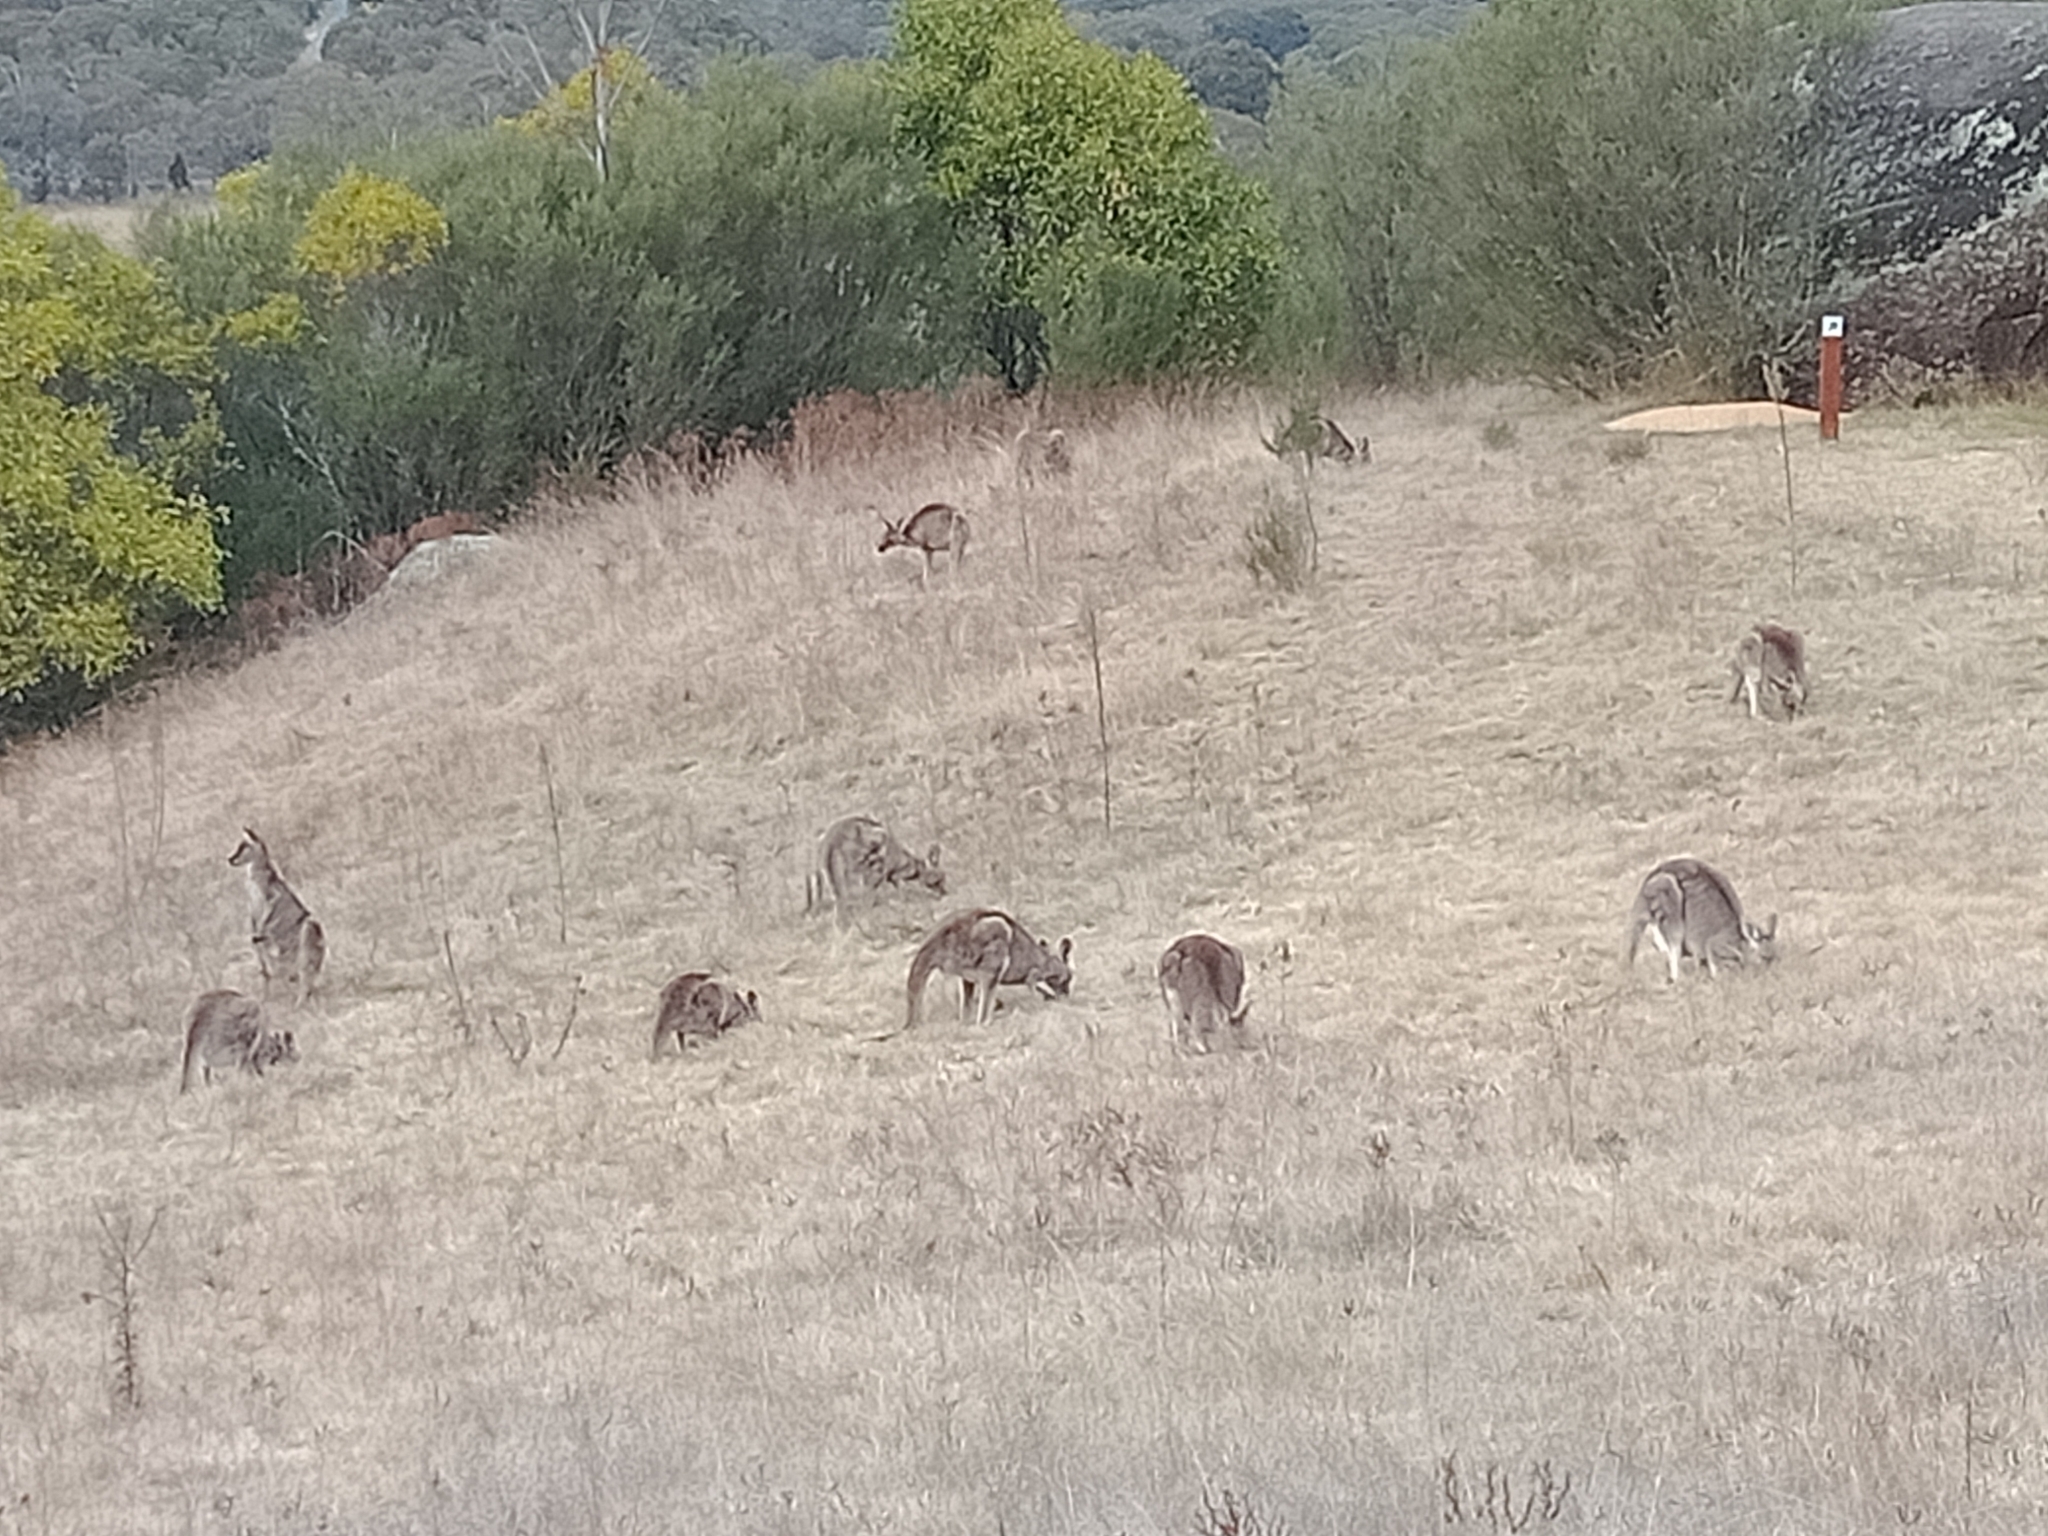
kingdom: Animalia
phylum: Chordata
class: Mammalia
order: Diprotodontia
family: Macropodidae
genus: Macropus
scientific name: Macropus giganteus
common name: Eastern grey kangaroo
